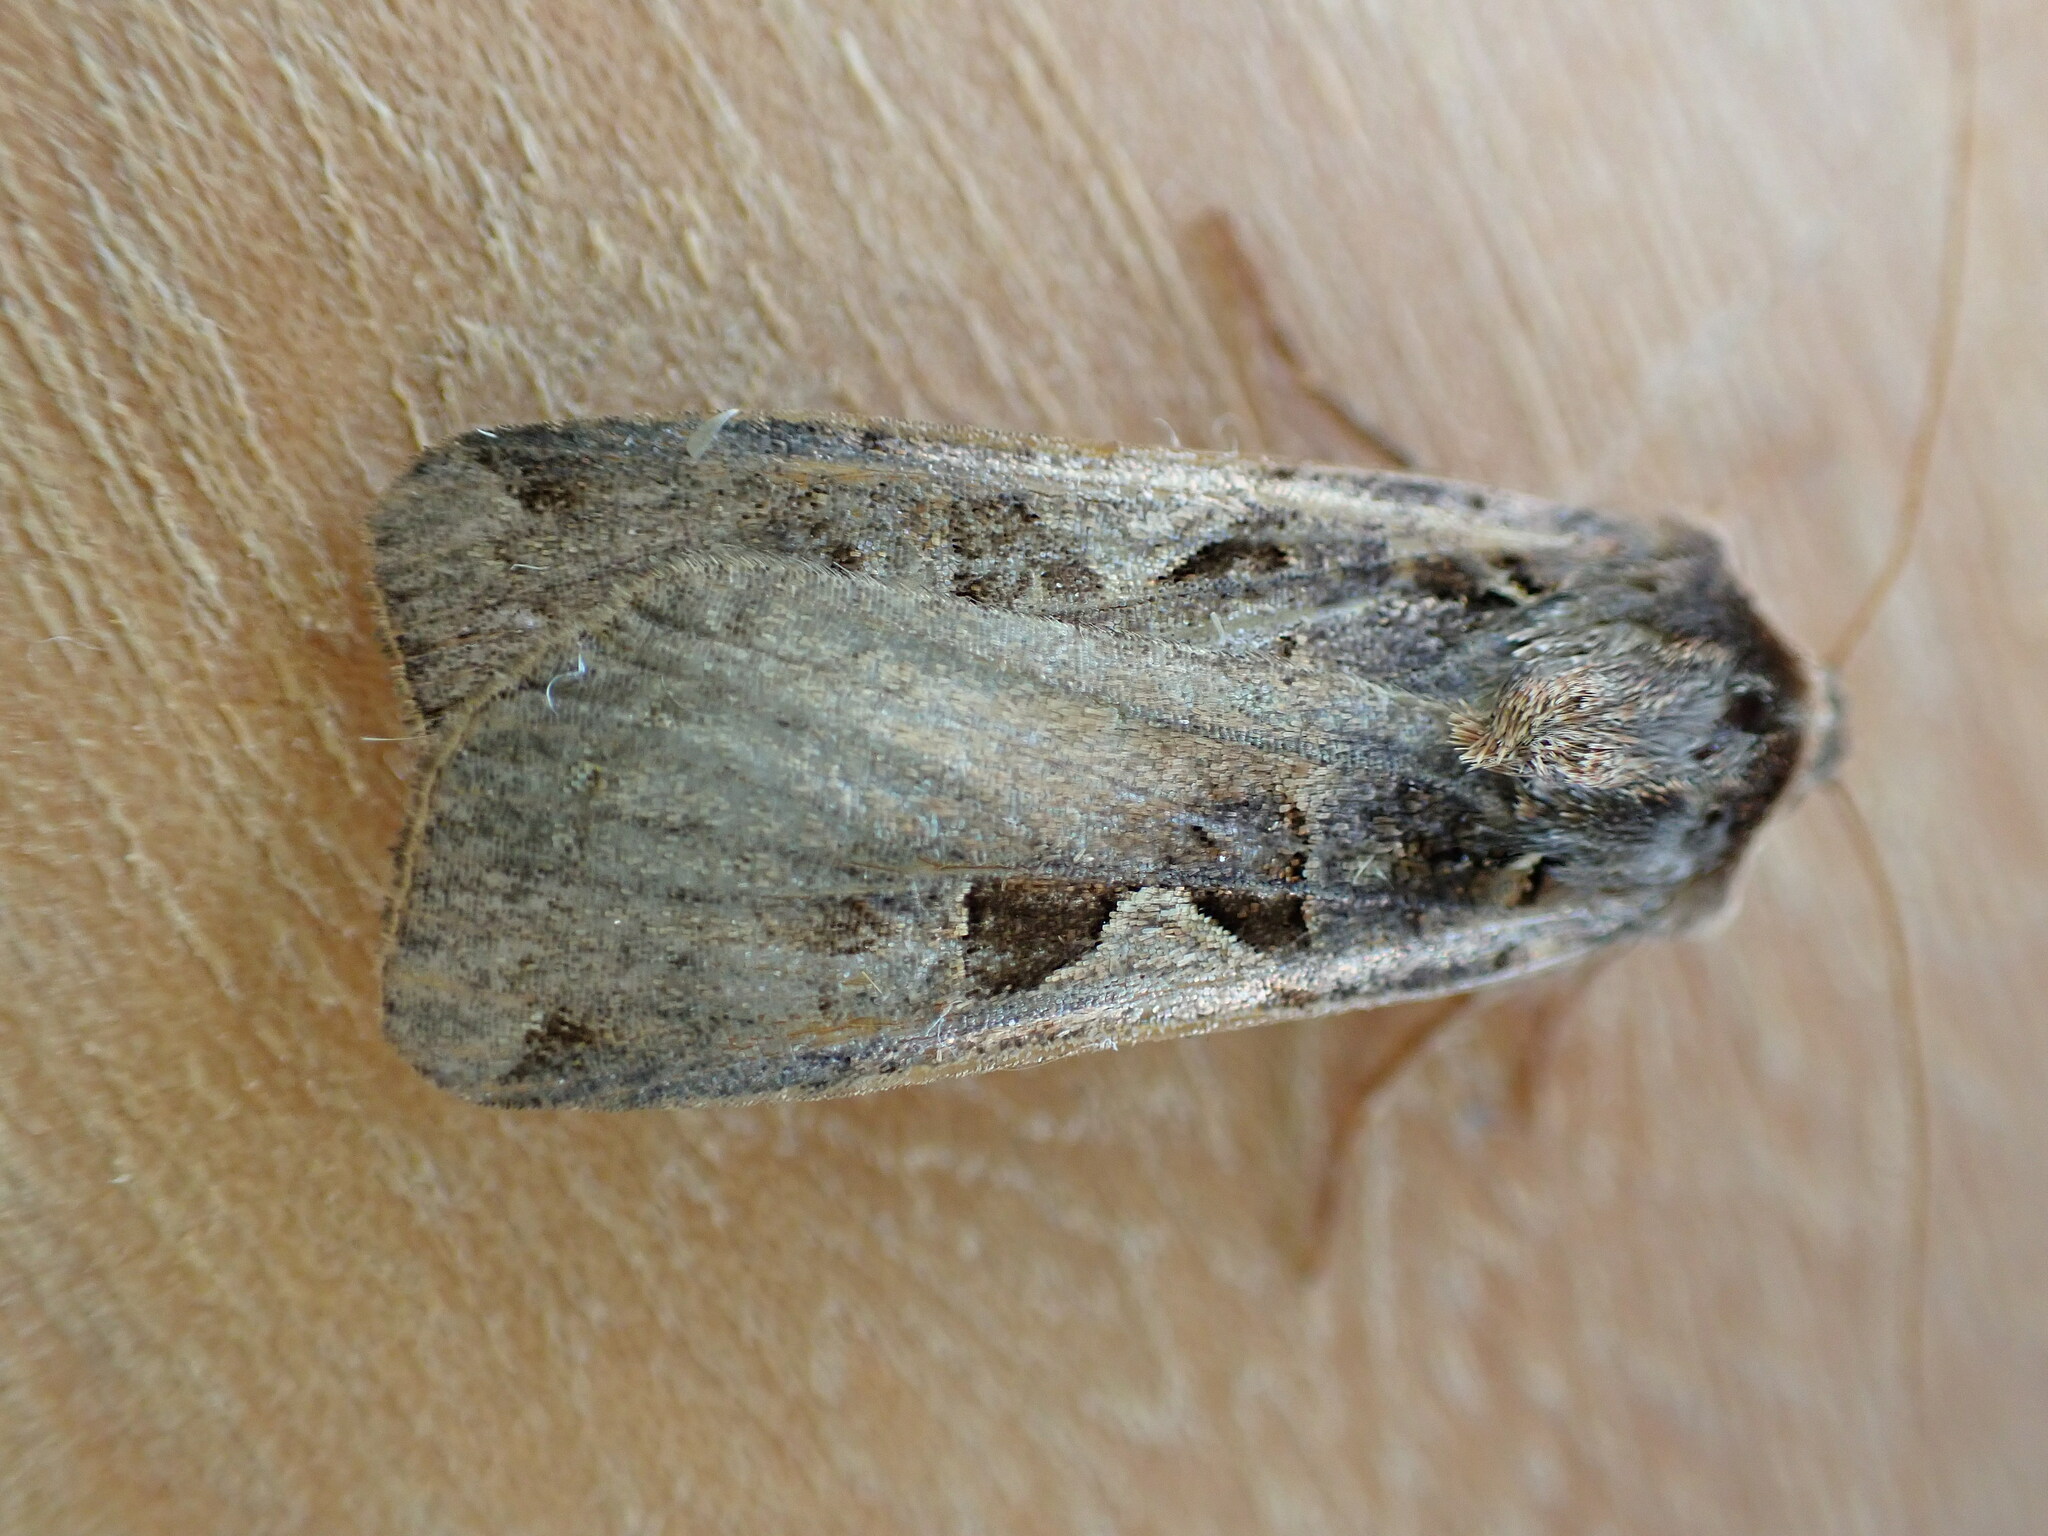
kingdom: Animalia
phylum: Arthropoda
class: Insecta
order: Lepidoptera
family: Noctuidae
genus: Xestia
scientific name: Xestia c-nigrum
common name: Setaceous hebrew character
